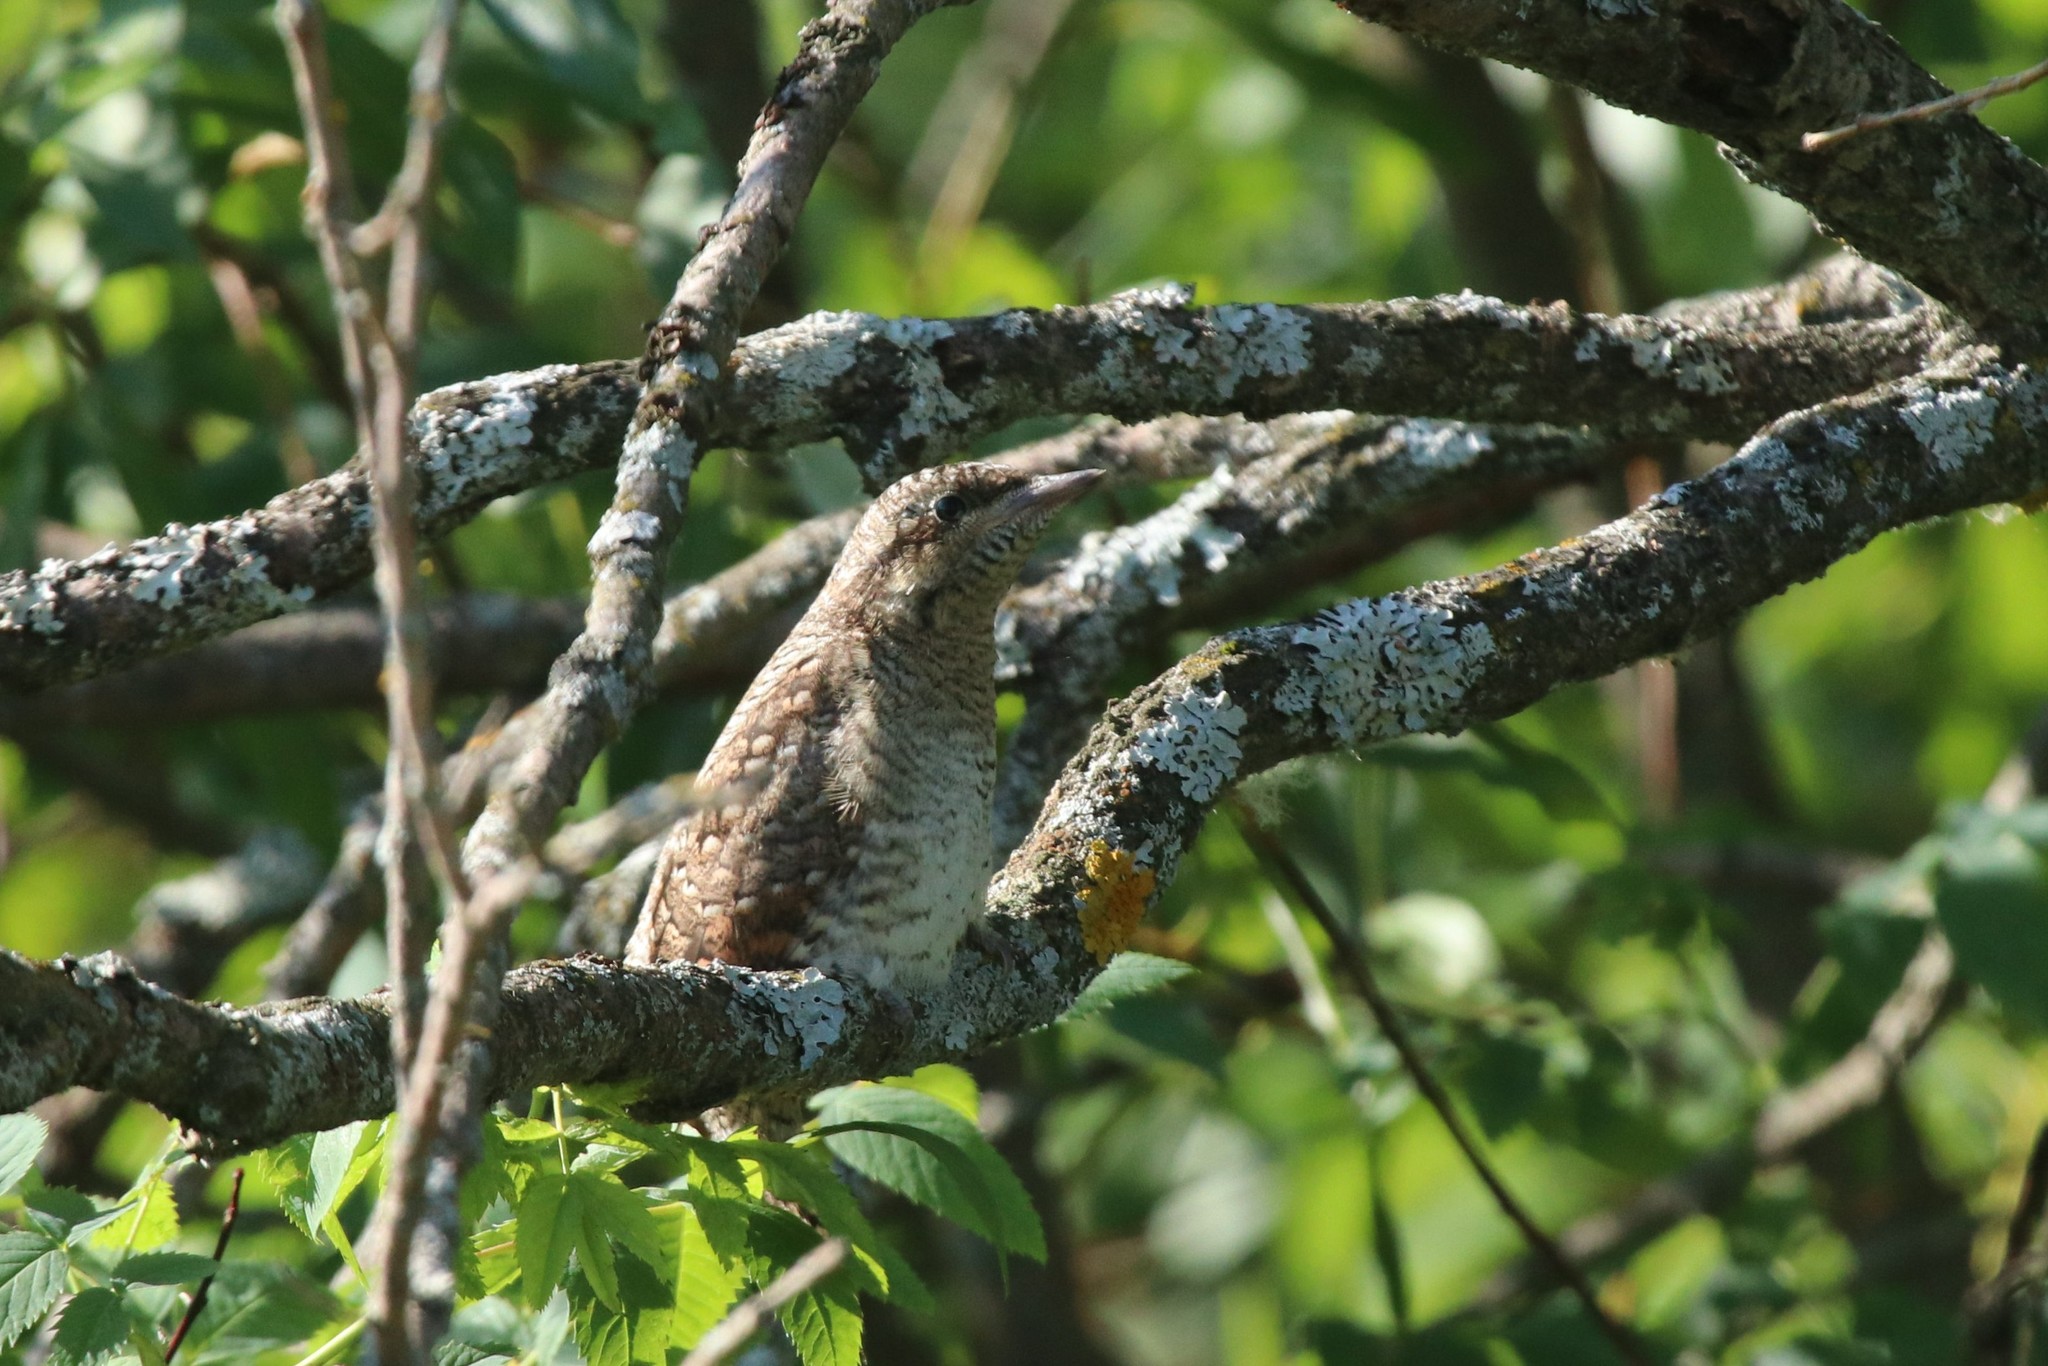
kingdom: Animalia
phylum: Chordata
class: Aves
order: Piciformes
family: Picidae
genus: Jynx
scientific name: Jynx torquilla
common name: Eurasian wryneck
